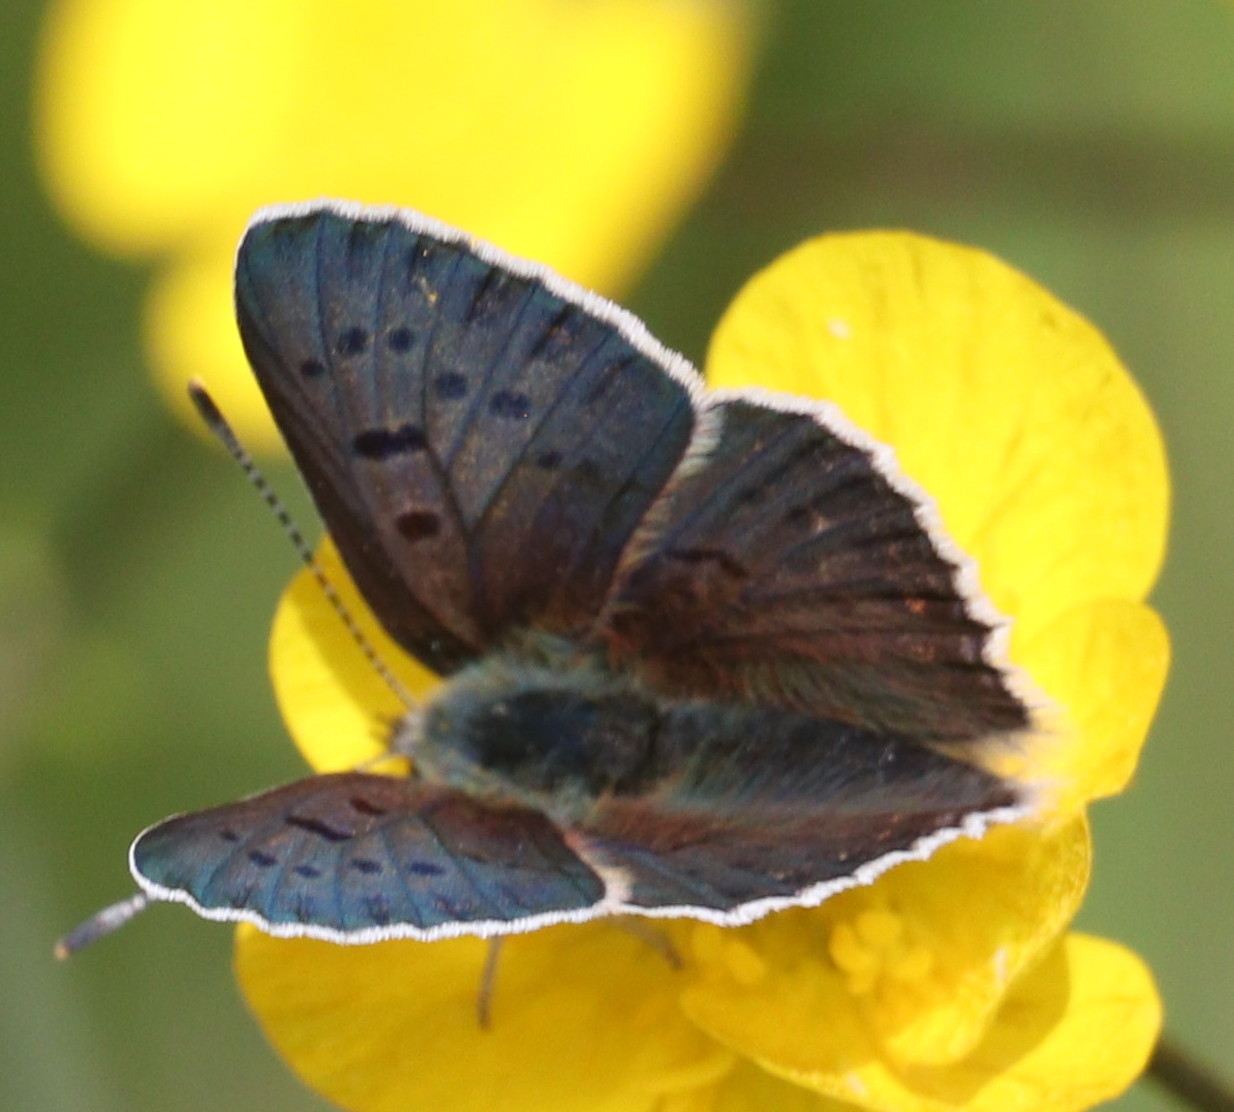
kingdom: Animalia
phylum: Arthropoda
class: Insecta
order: Lepidoptera
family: Lycaenidae
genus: Loweia
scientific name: Loweia tityrus
